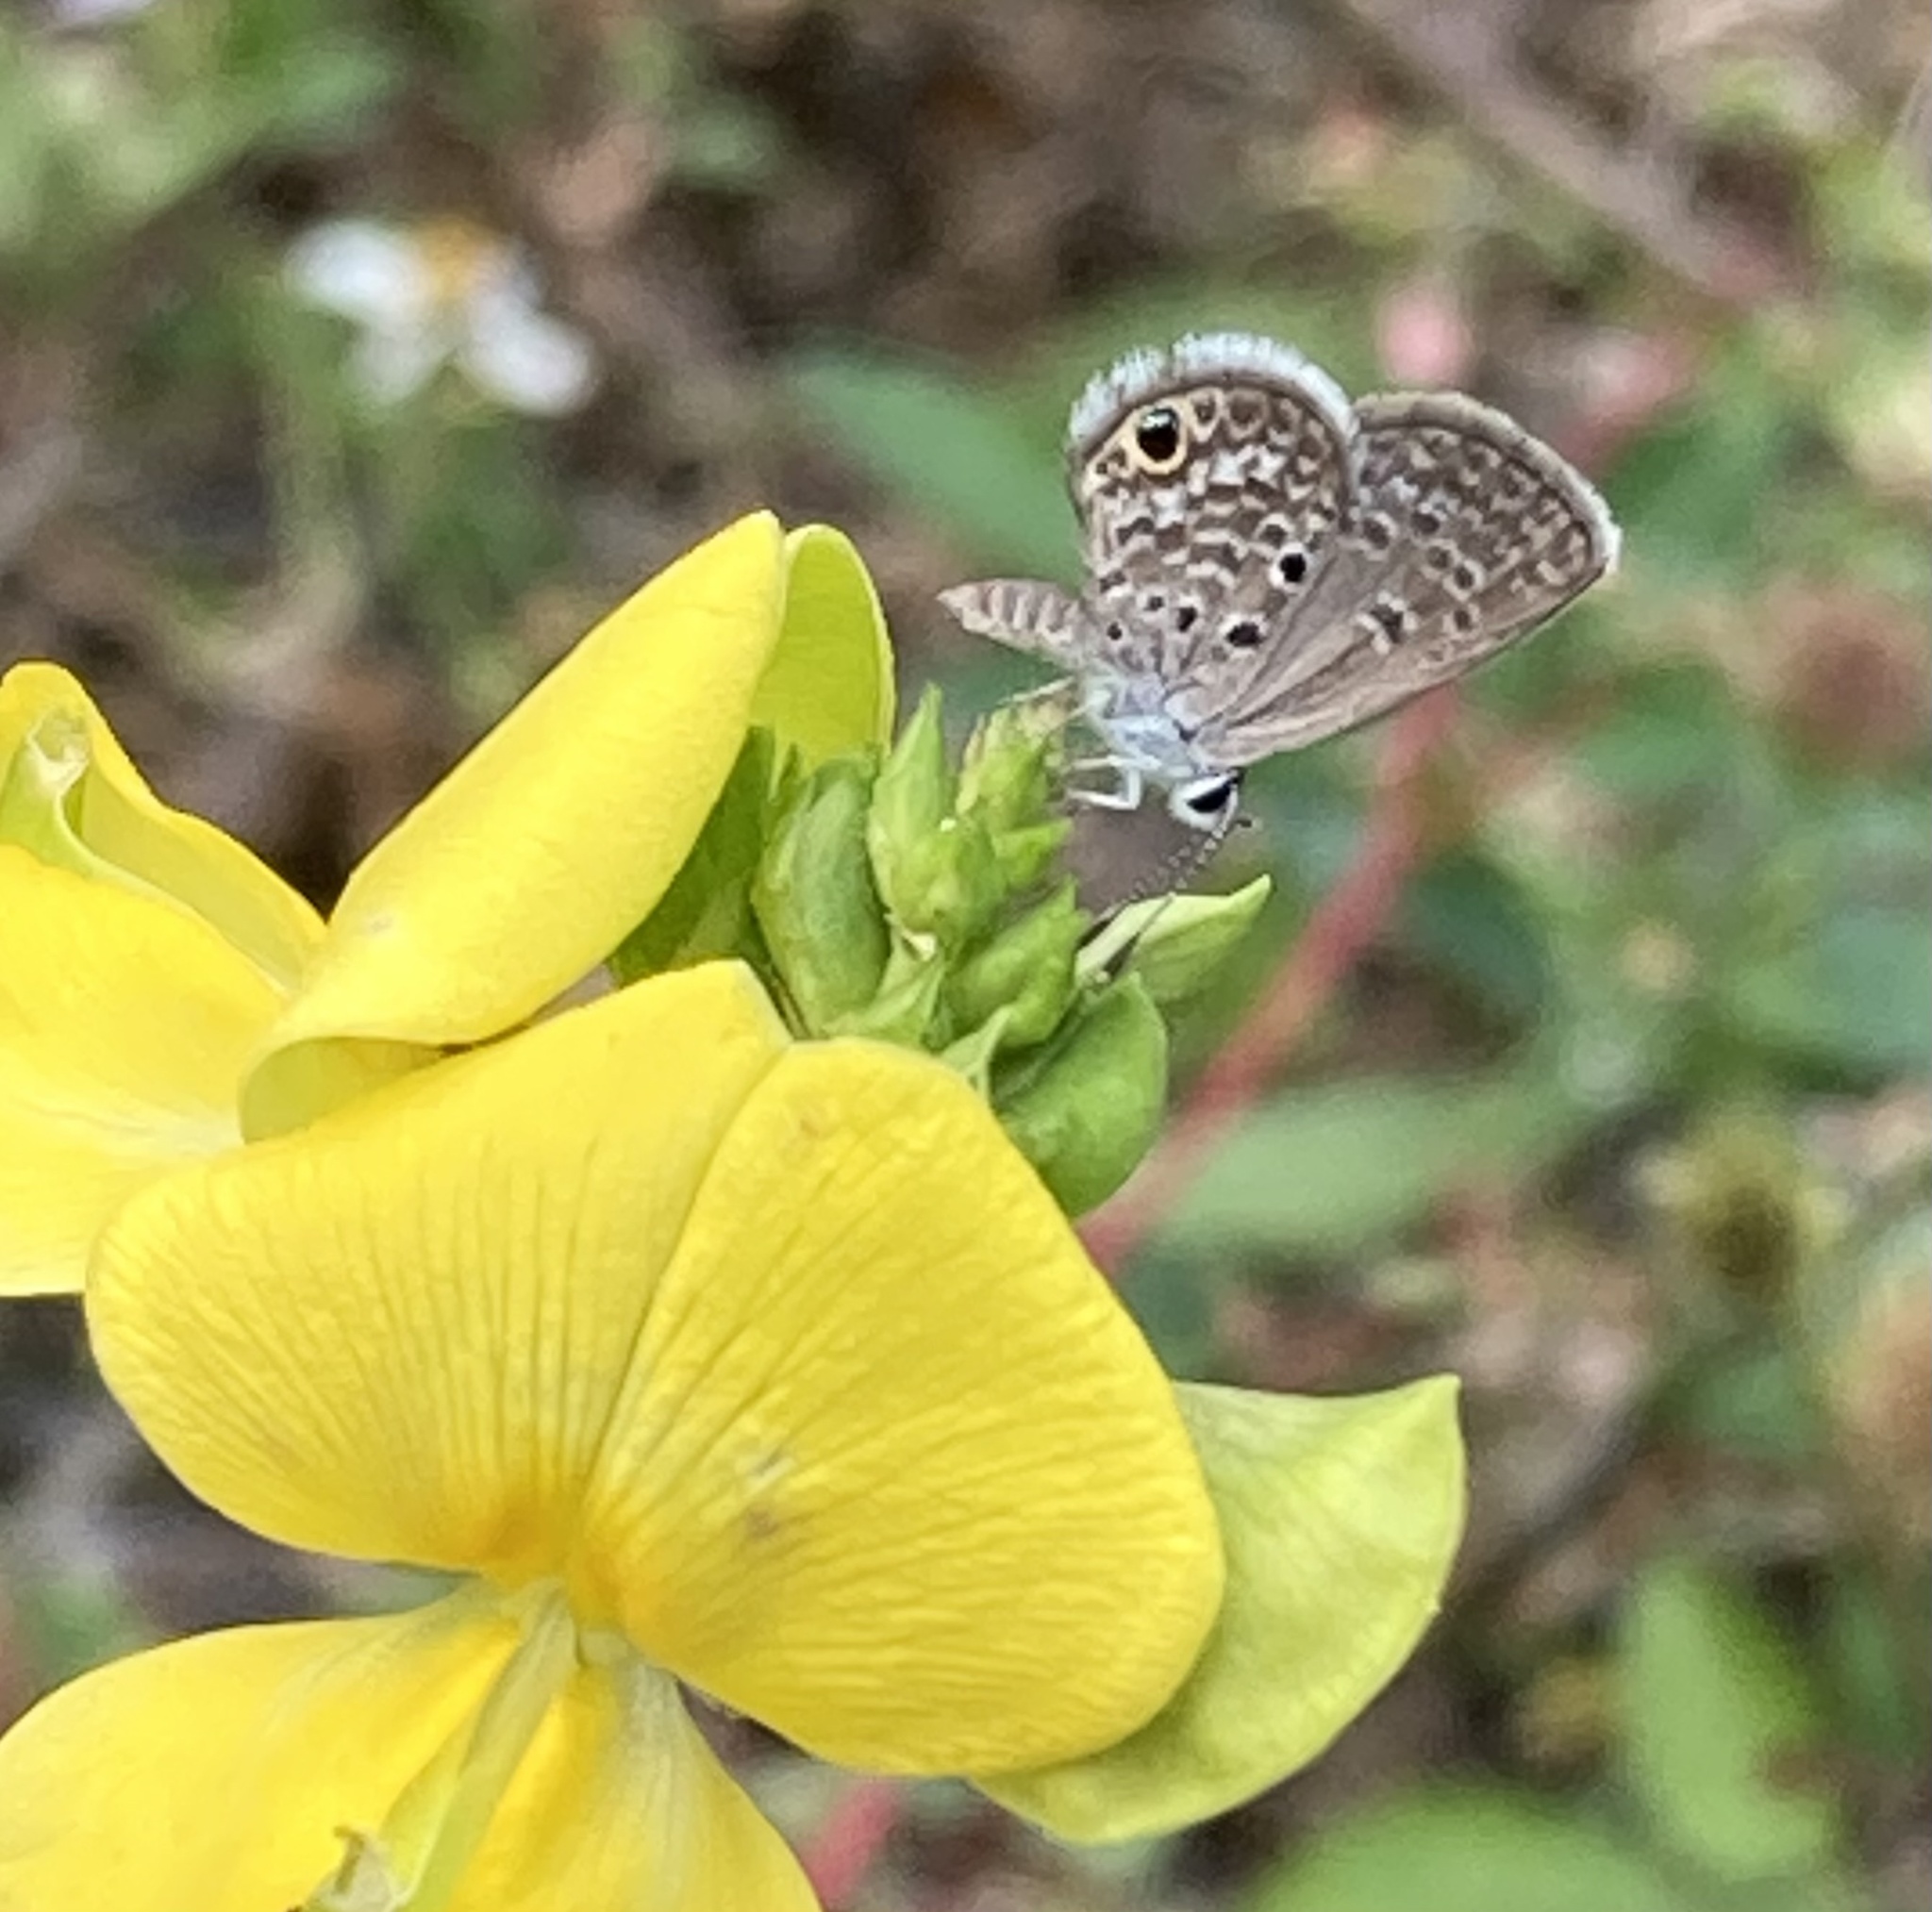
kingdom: Animalia
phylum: Arthropoda
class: Insecta
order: Lepidoptera
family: Lycaenidae
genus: Hemiargus
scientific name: Hemiargus ceraunus
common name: Ceraunus blue
